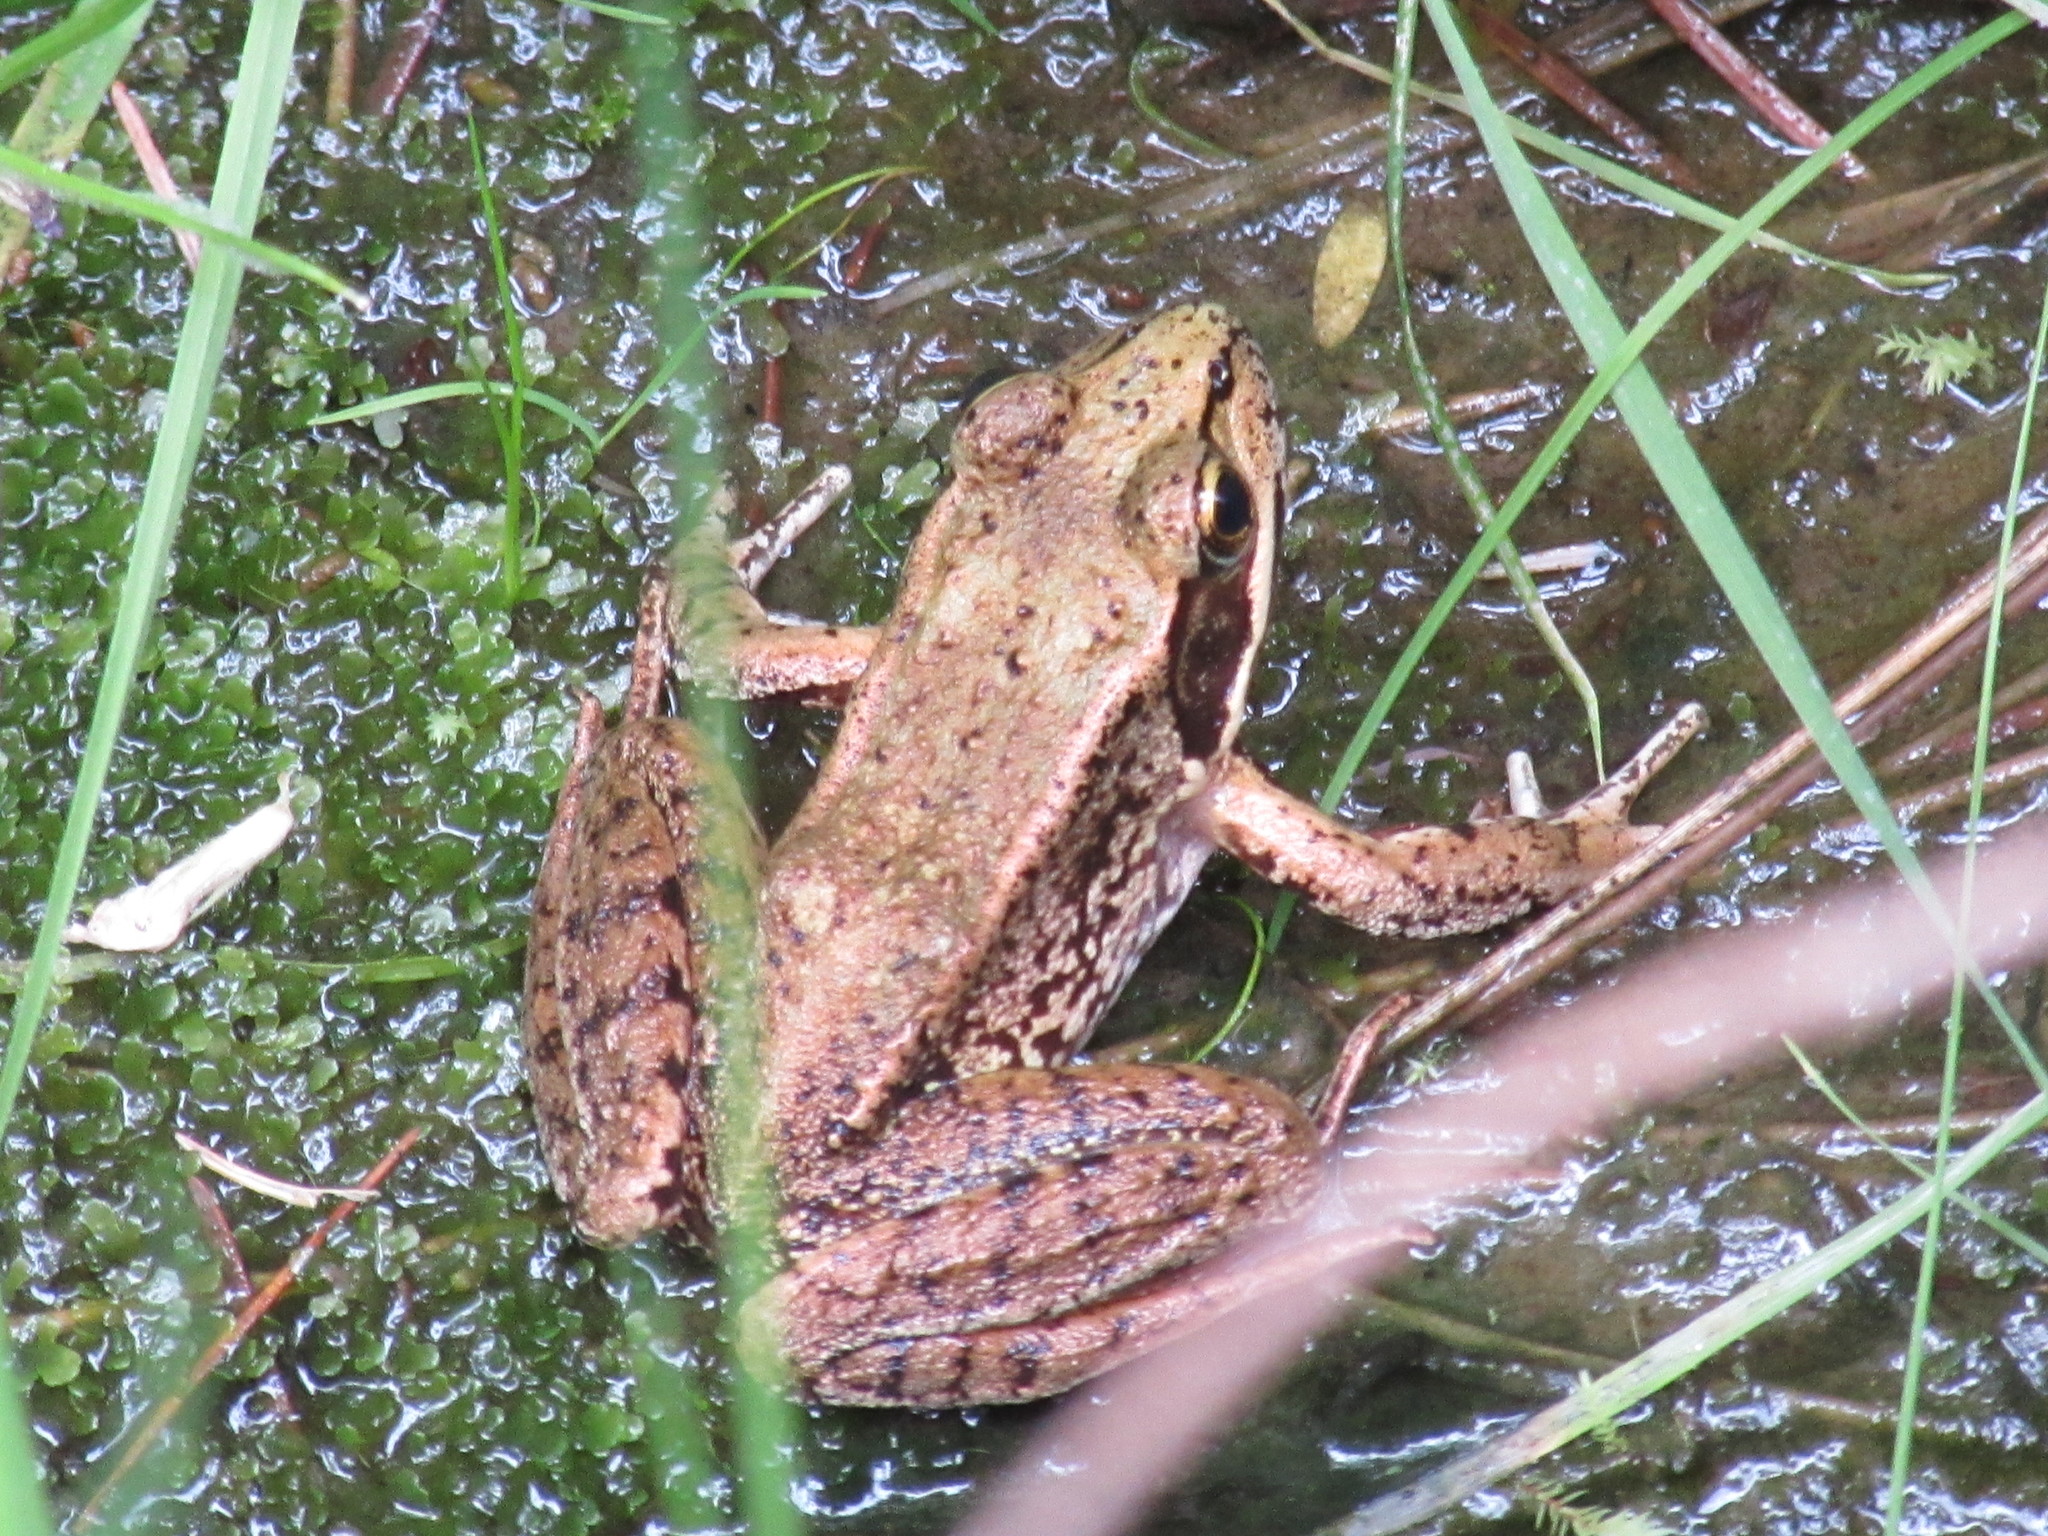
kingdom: Animalia
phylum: Chordata
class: Amphibia
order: Anura
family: Ranidae
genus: Rana
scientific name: Rana aurora
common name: Red-legged frog
